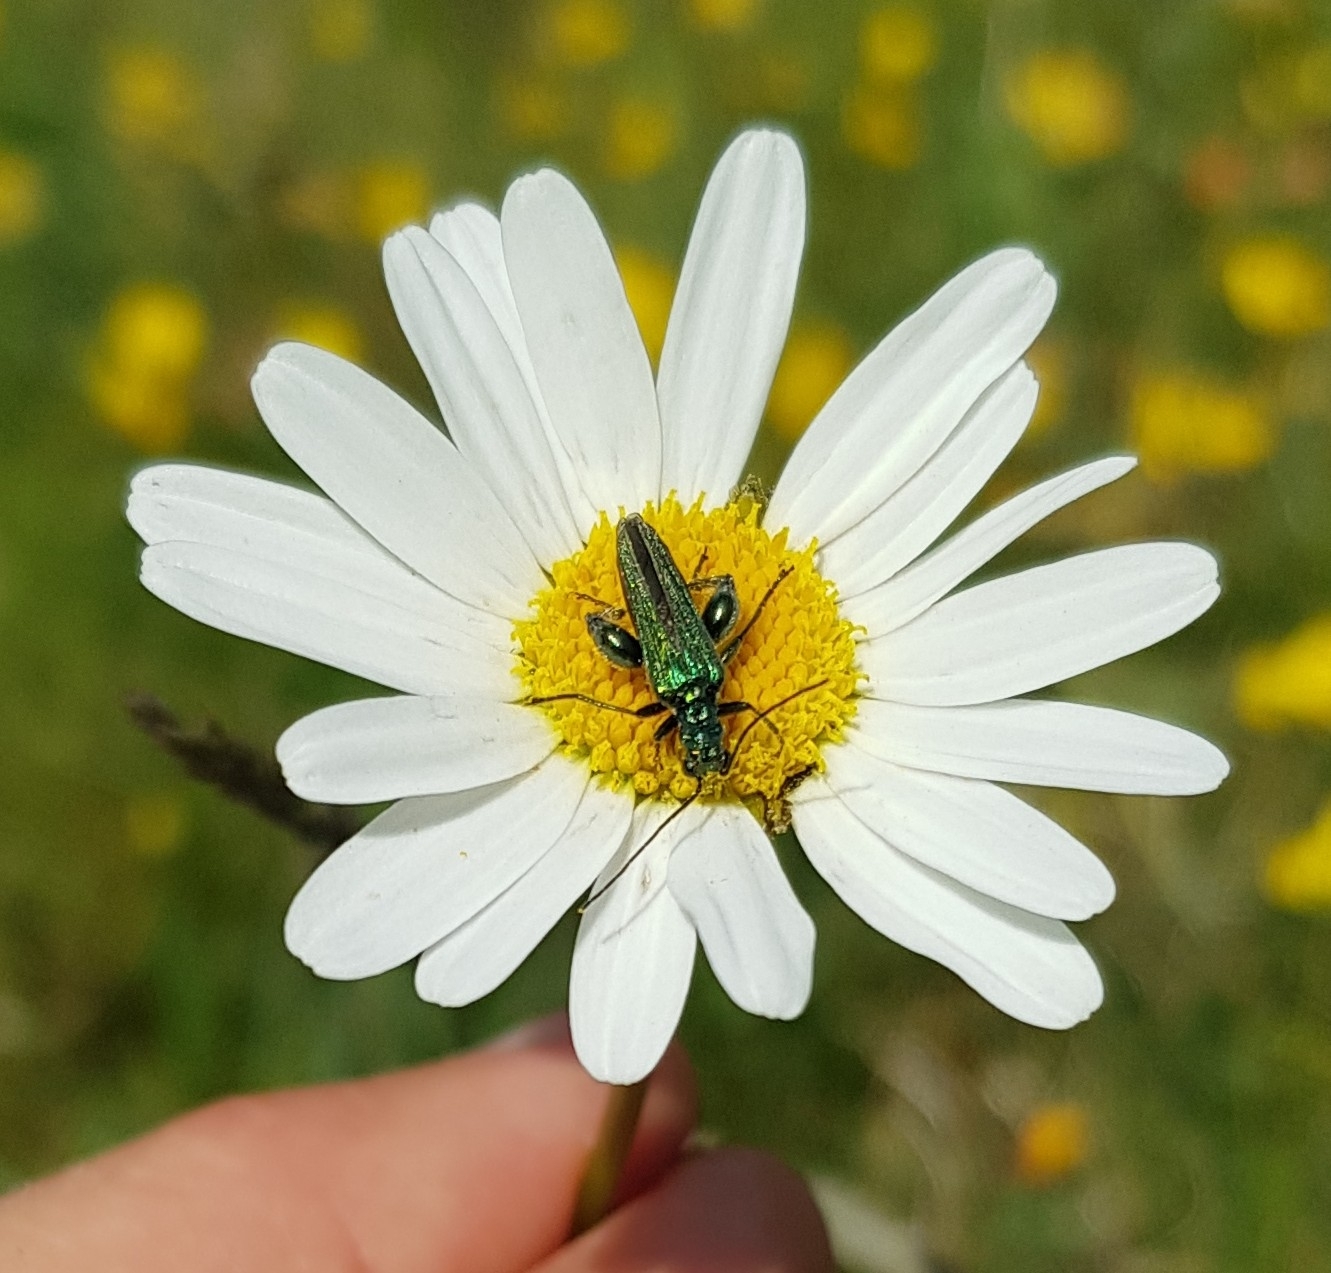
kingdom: Animalia
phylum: Arthropoda
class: Insecta
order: Coleoptera
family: Oedemeridae
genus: Oedemera
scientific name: Oedemera nobilis
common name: Swollen-thighed beetle
